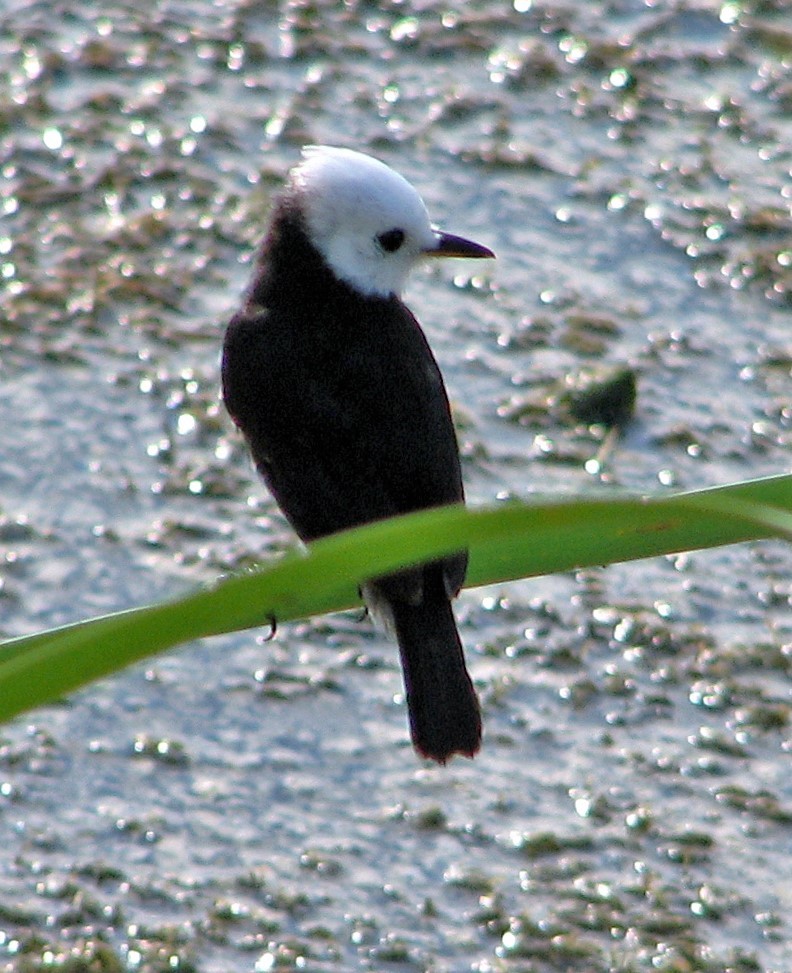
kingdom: Animalia
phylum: Chordata
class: Aves
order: Passeriformes
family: Tyrannidae
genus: Arundinicola
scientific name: Arundinicola leucocephala
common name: White-headed marsh tyrant
